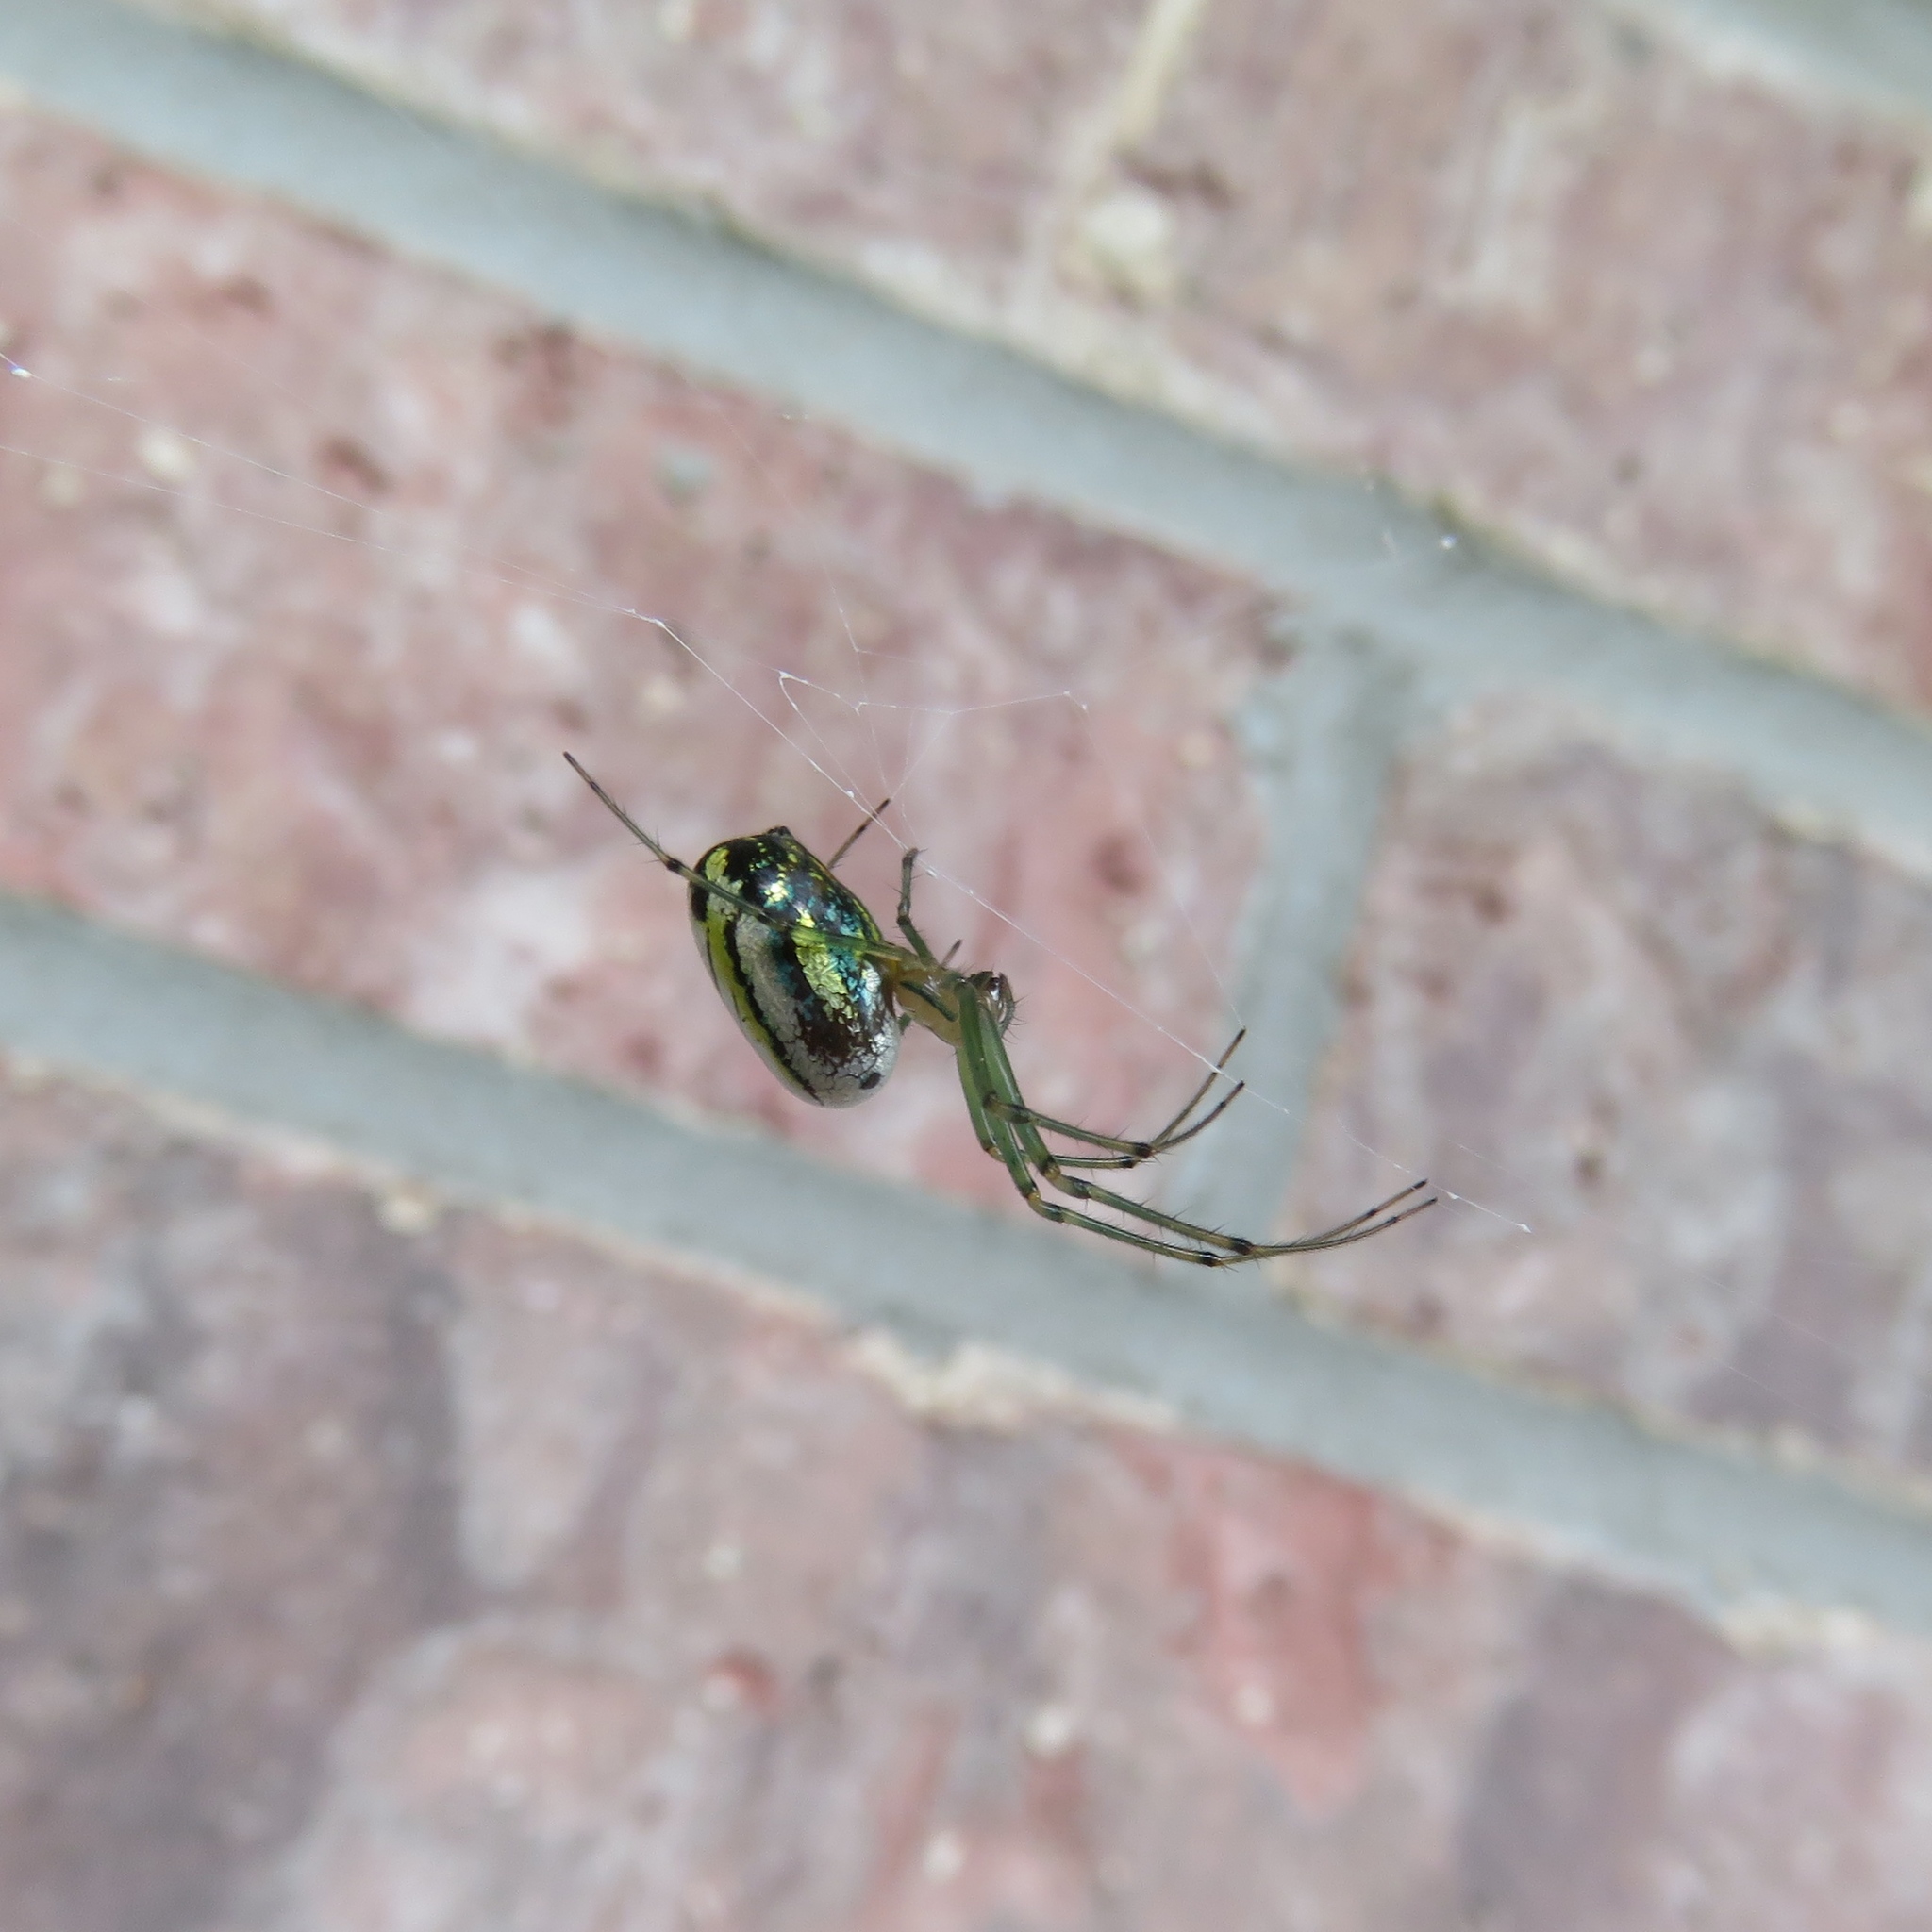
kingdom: Animalia
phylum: Arthropoda
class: Arachnida
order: Araneae
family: Tetragnathidae
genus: Leucauge
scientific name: Leucauge venusta
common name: Longjawed orb weavers
